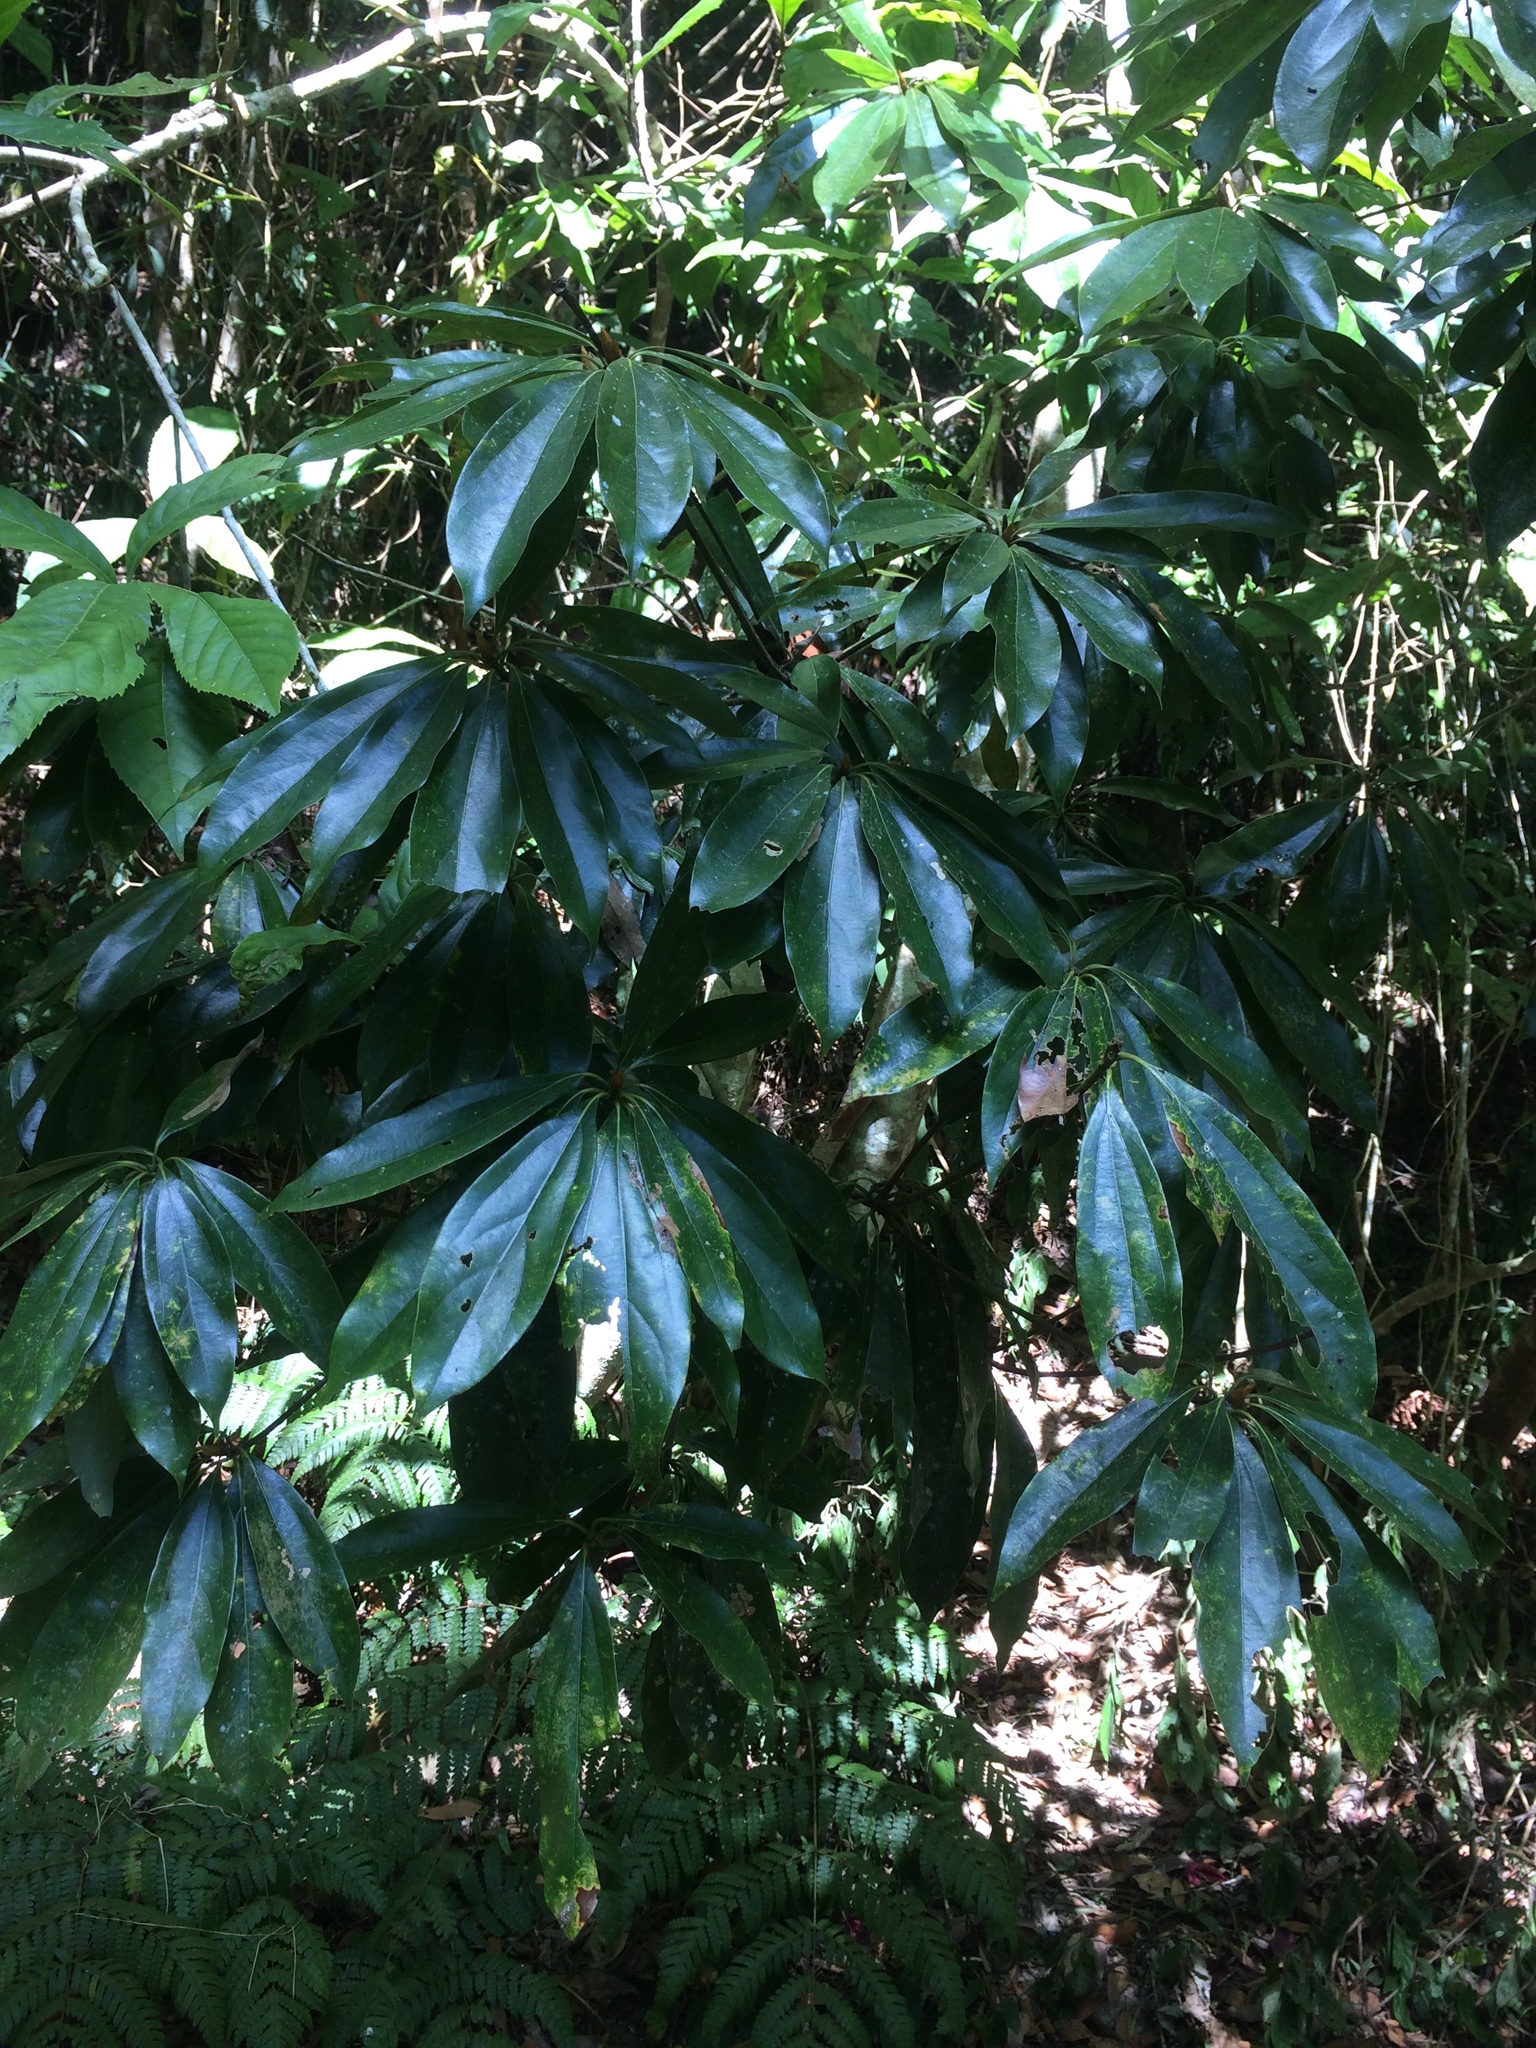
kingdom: Plantae
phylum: Tracheophyta
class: Magnoliopsida
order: Laurales
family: Lauraceae
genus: Neolitsea
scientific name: Neolitsea konishii
